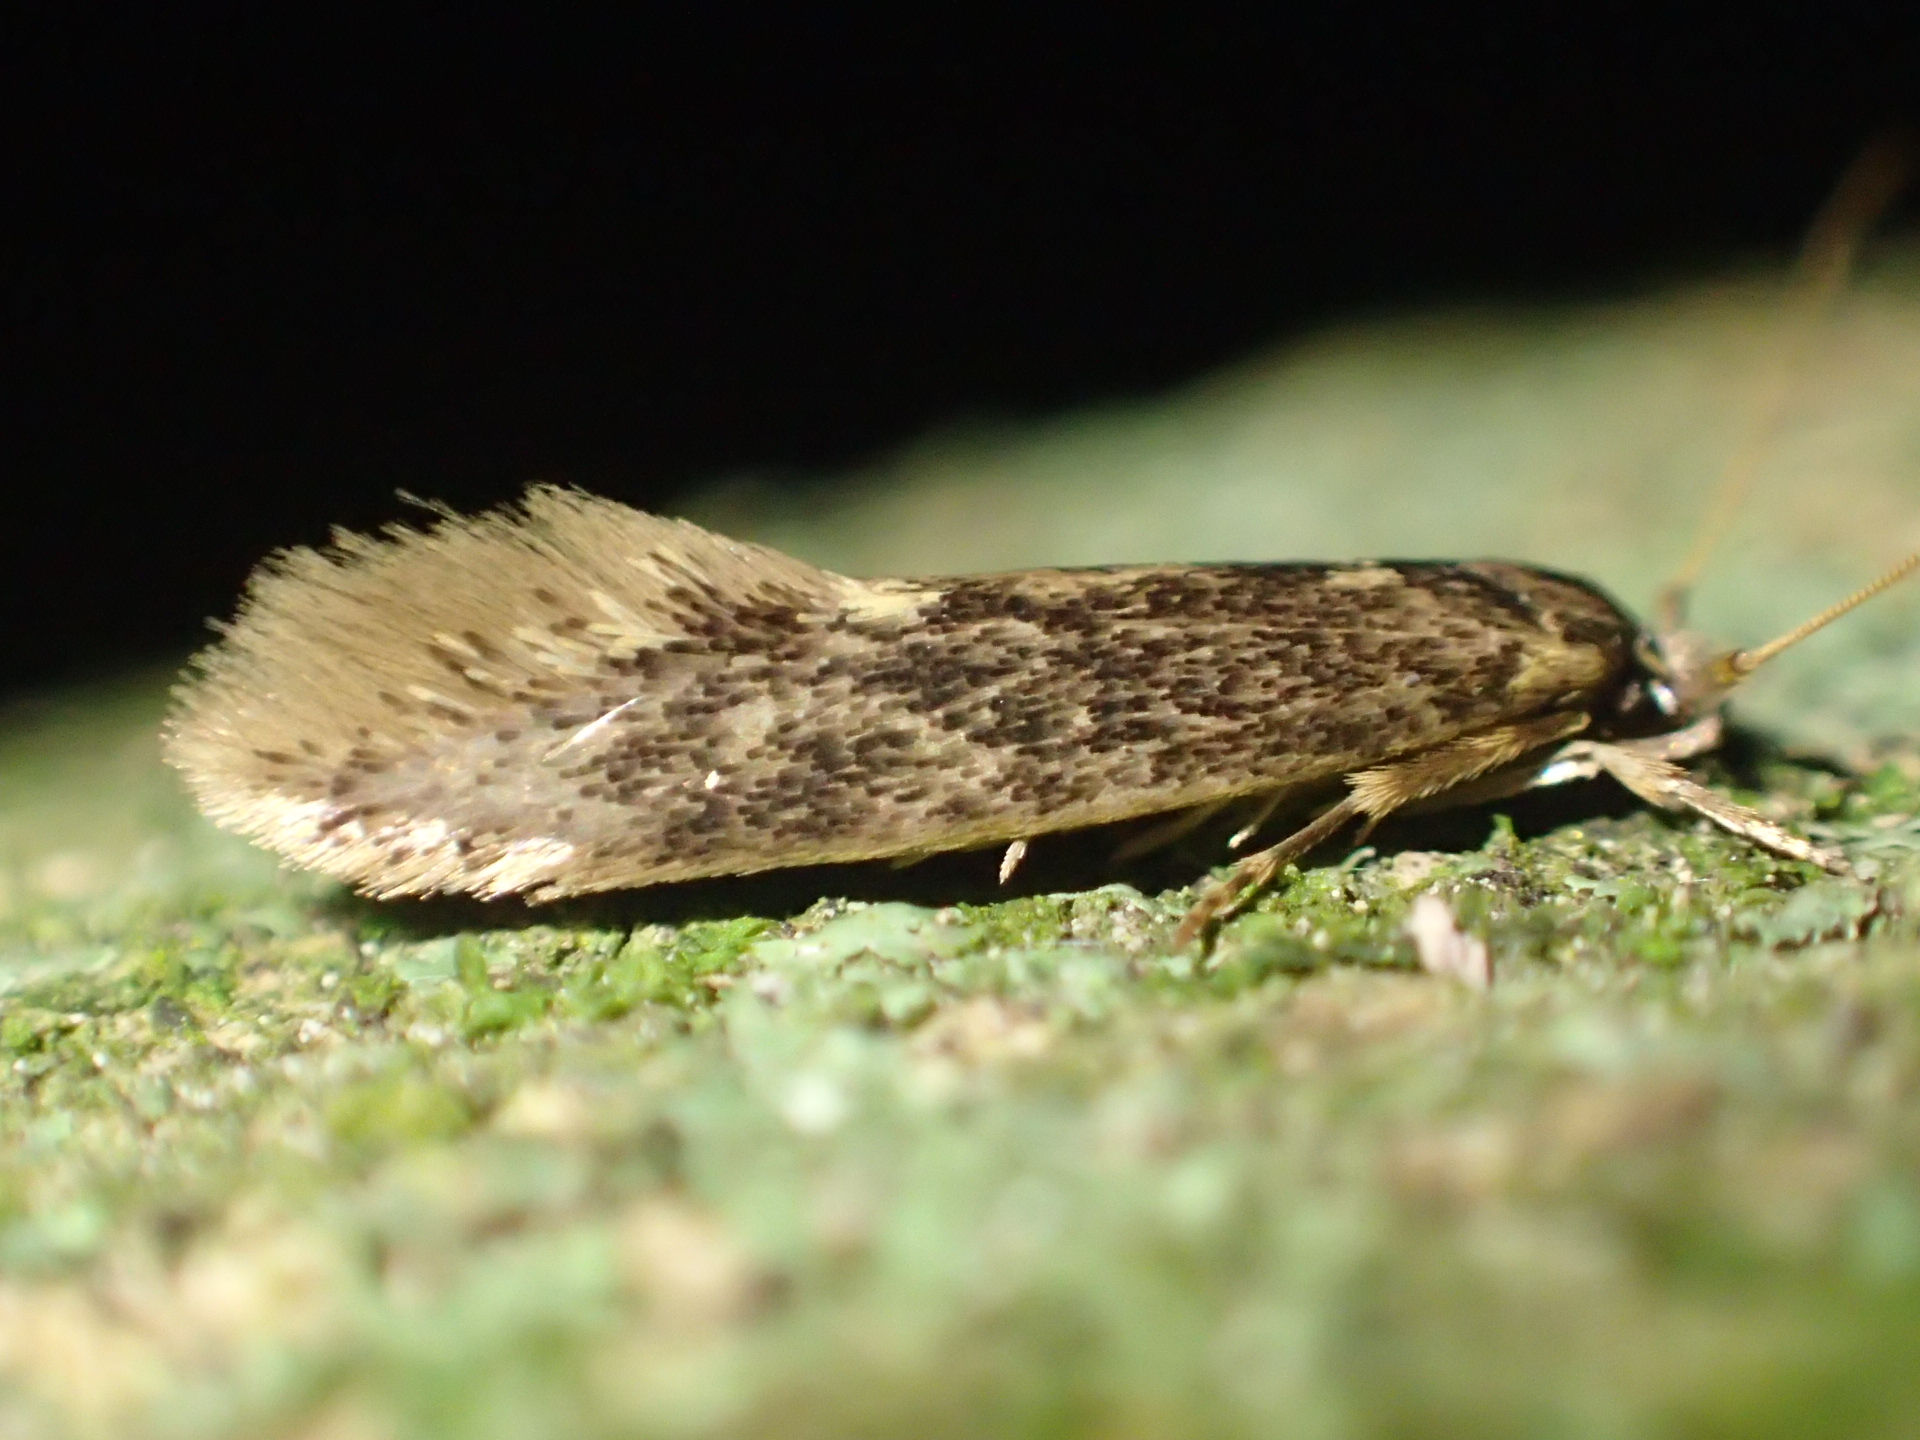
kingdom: Animalia
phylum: Arthropoda
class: Insecta
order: Lepidoptera
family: Tineidae
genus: Opogona
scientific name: Opogona omoscopa
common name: Moth
